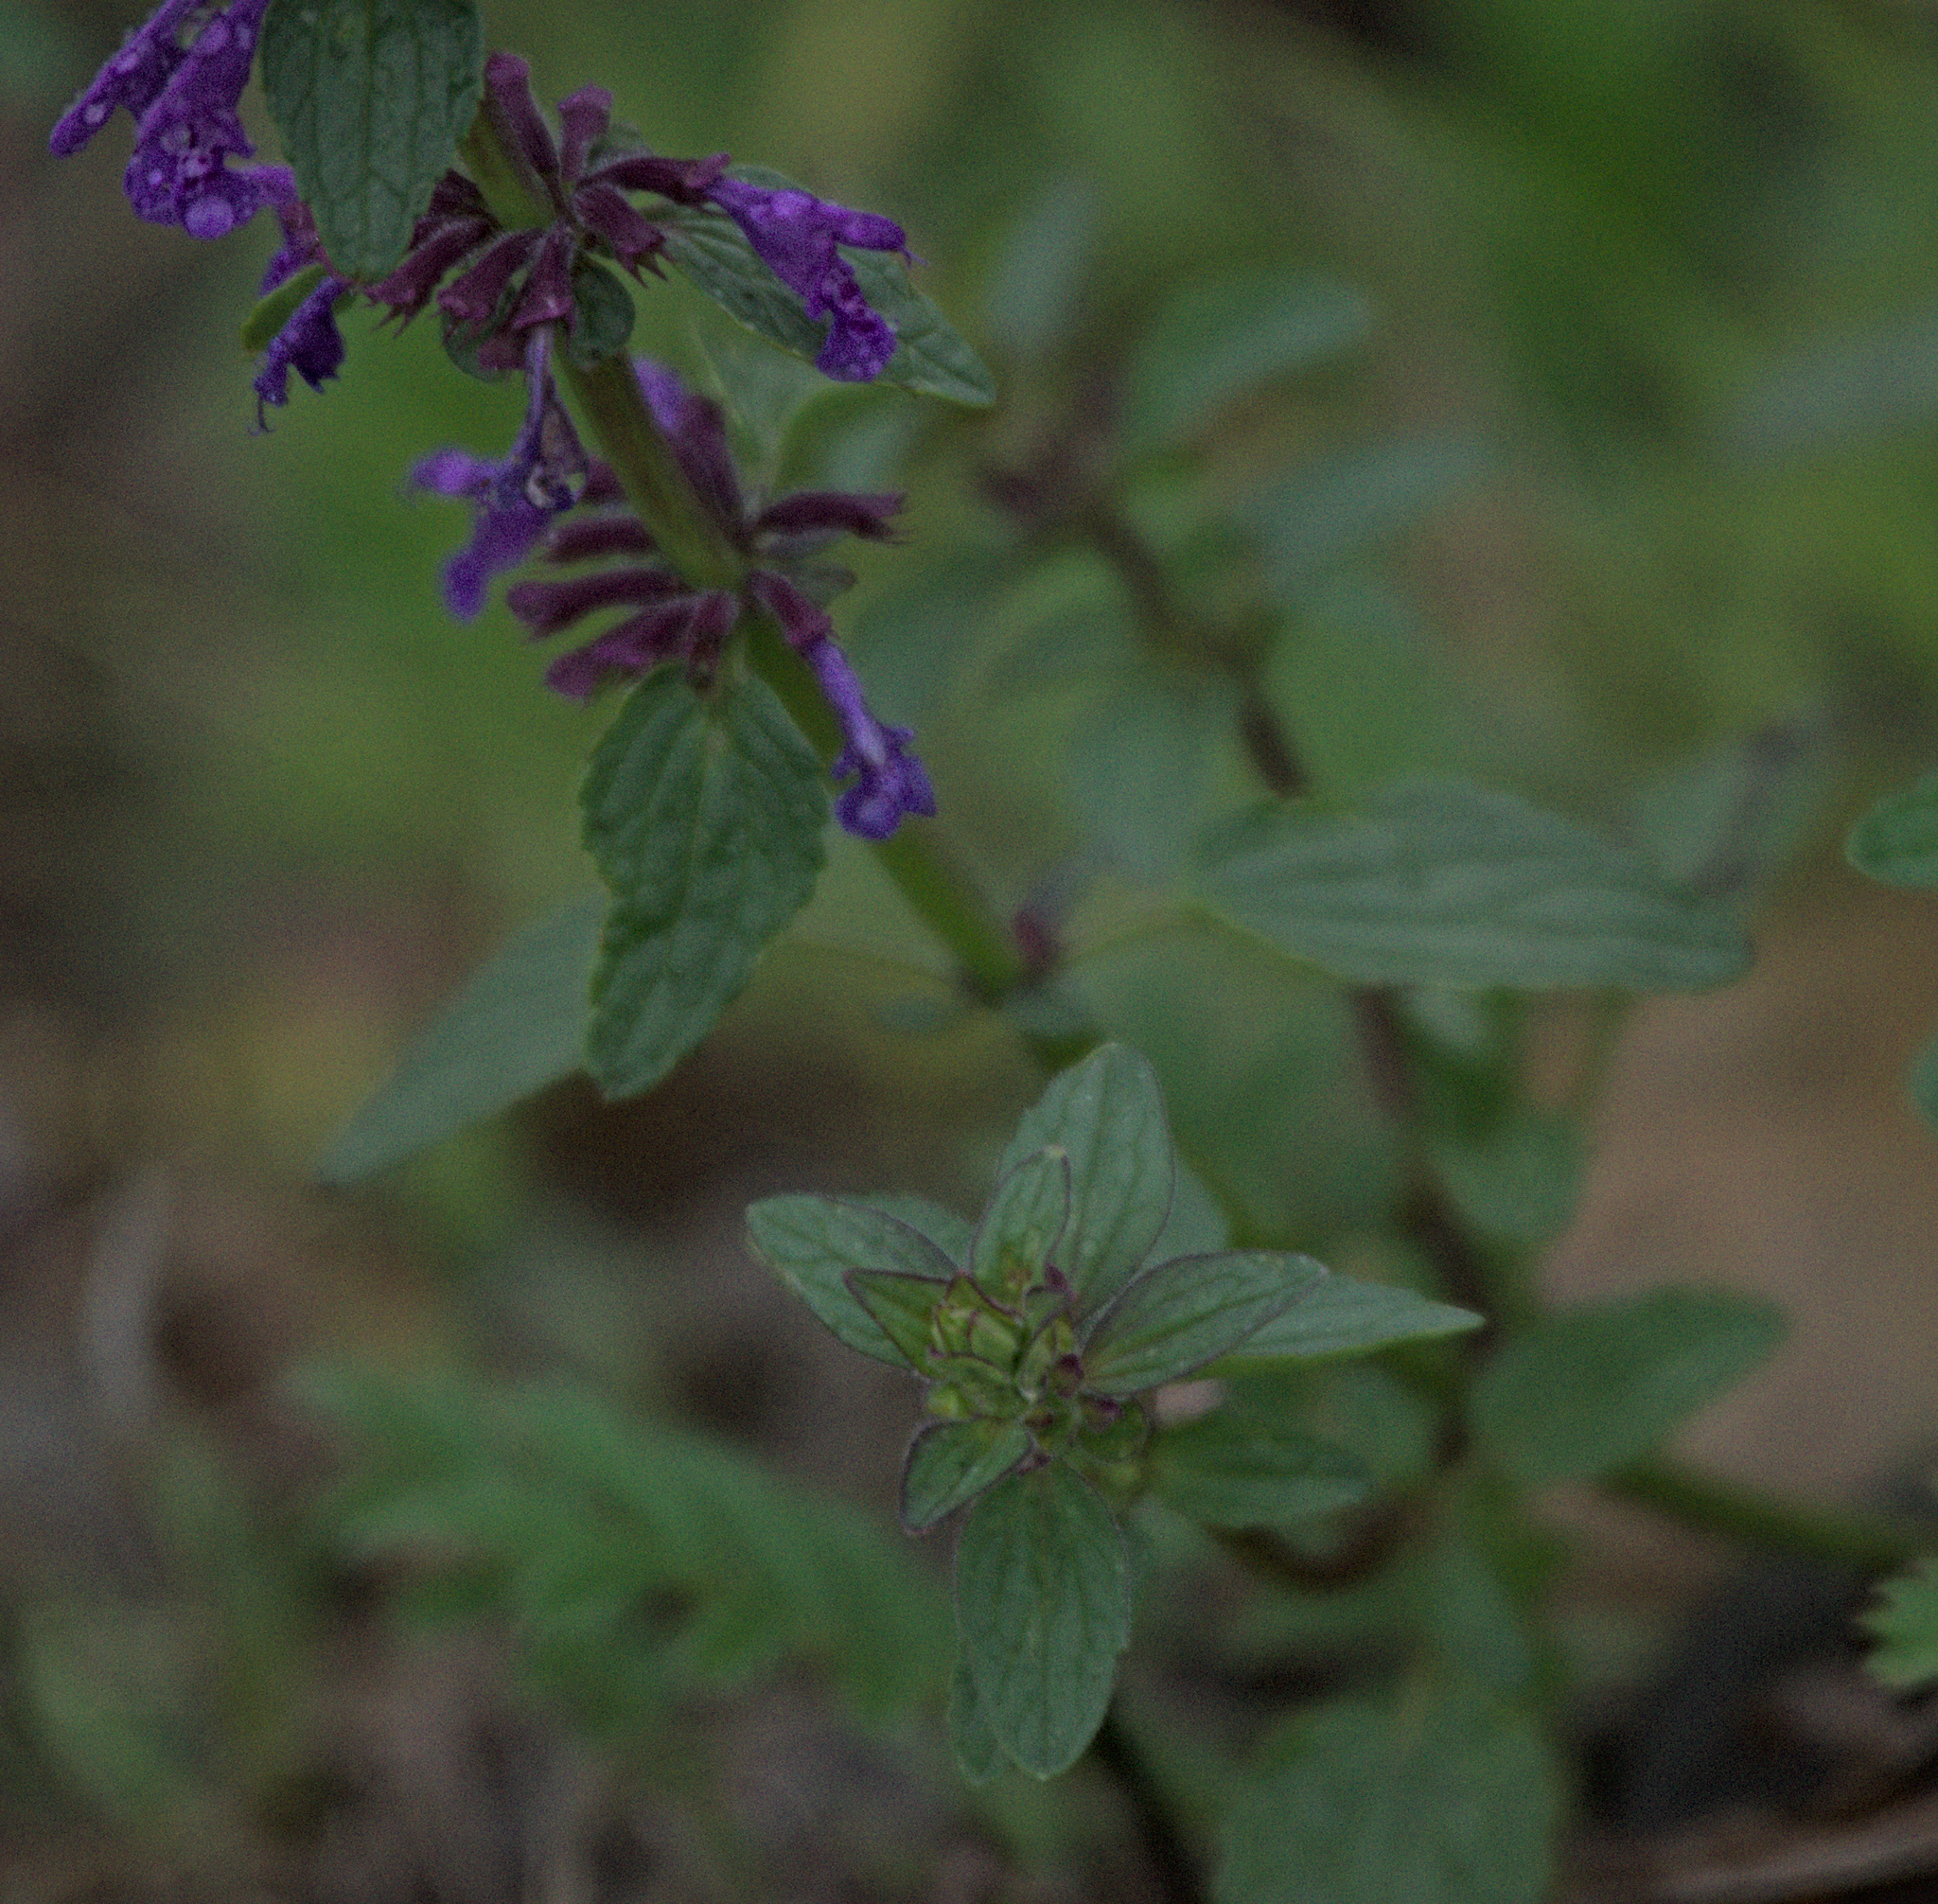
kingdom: Plantae
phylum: Tracheophyta
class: Magnoliopsida
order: Lamiales
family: Lamiaceae
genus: Dracocephalum
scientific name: Dracocephalum nutans
